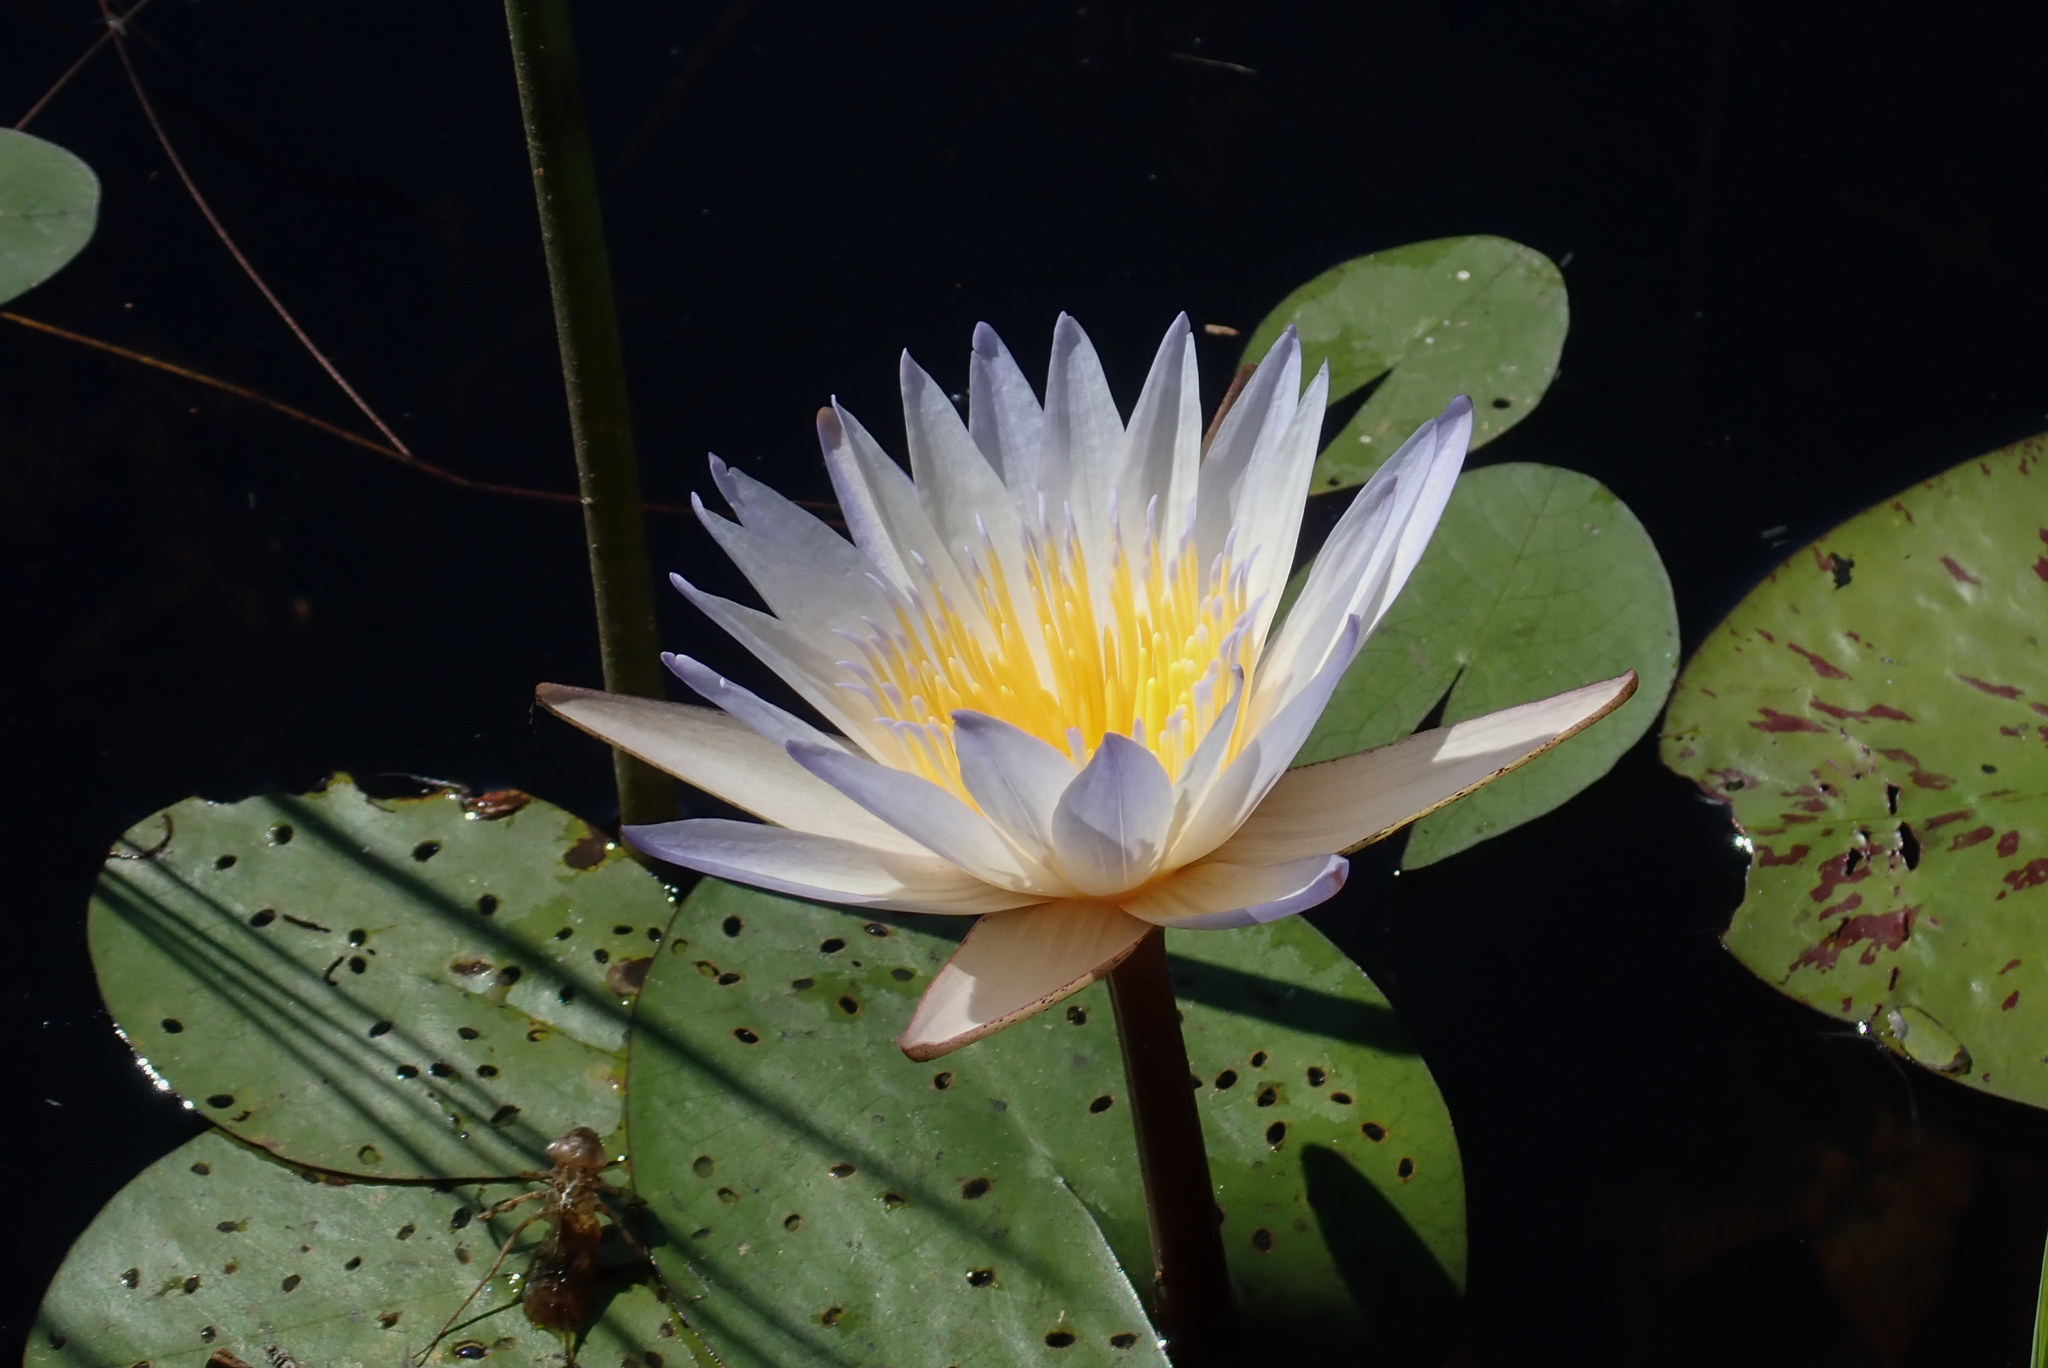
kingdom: Plantae
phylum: Tracheophyta
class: Magnoliopsida
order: Nymphaeales
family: Nymphaeaceae
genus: Nymphaea
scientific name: Nymphaea nouchali
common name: Blue lotus
